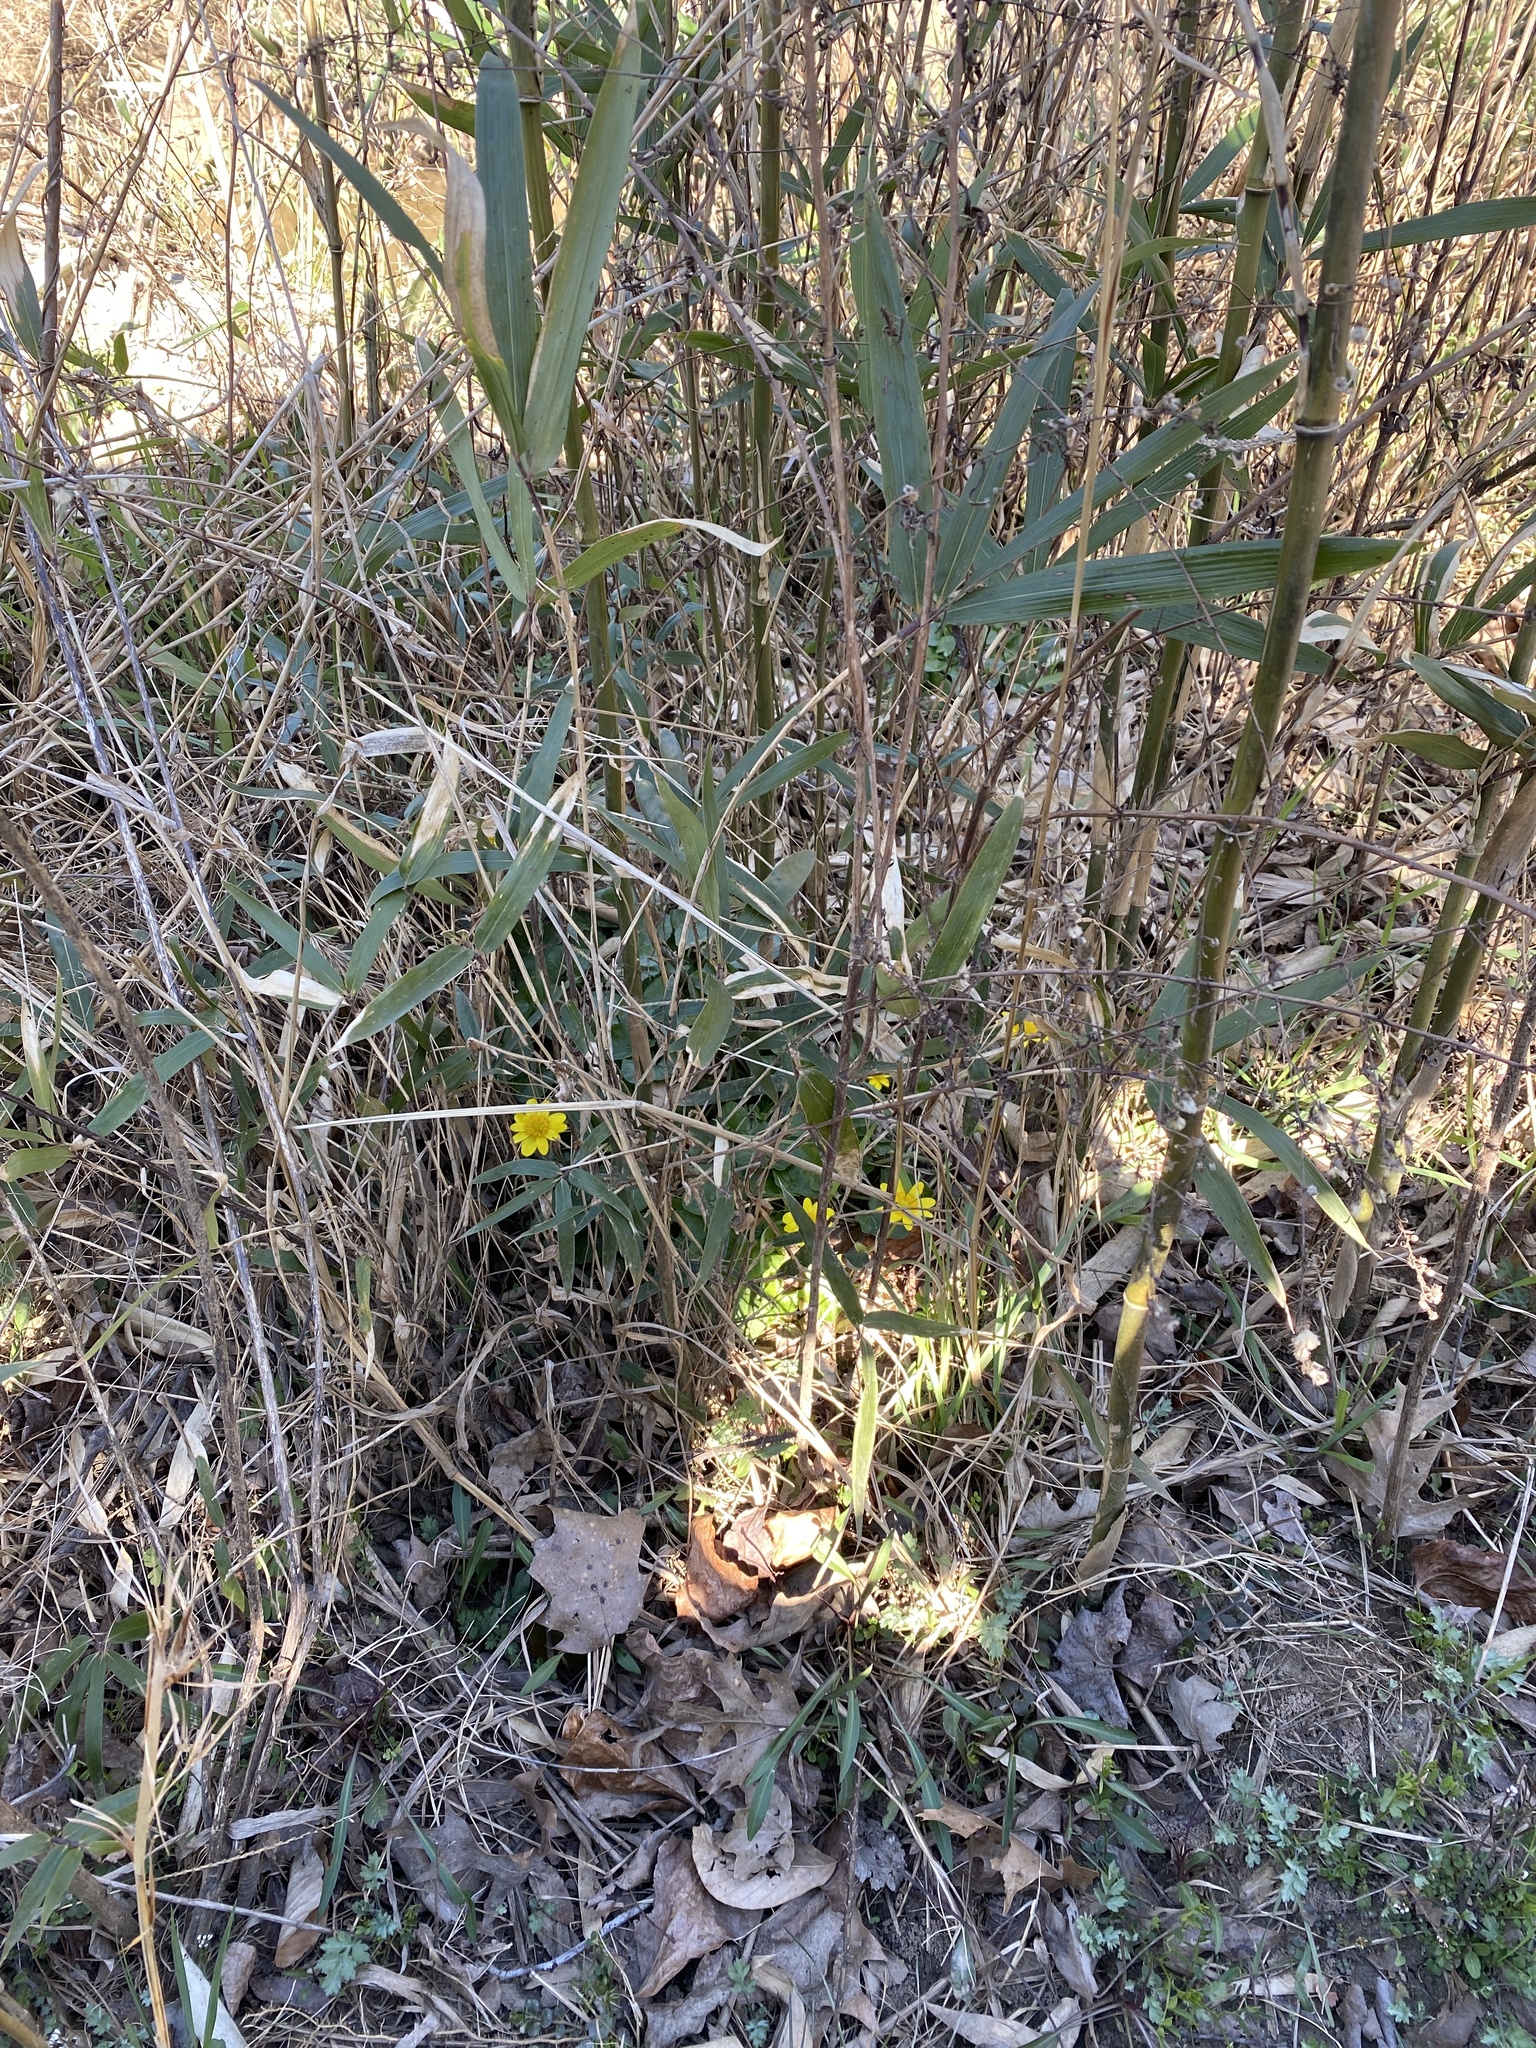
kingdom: Plantae
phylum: Tracheophyta
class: Magnoliopsida
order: Ranunculales
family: Ranunculaceae
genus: Ficaria
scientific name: Ficaria verna
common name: Lesser celandine
